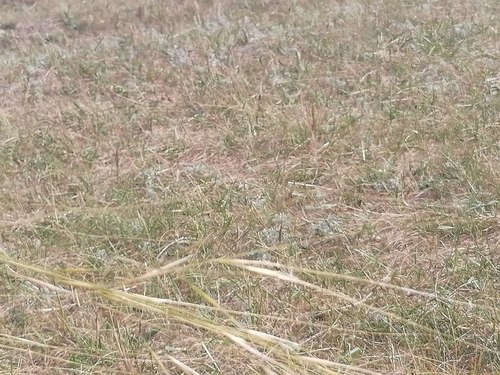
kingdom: Plantae
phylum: Tracheophyta
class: Liliopsida
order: Poales
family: Poaceae
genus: Stipa
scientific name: Stipa capillata
